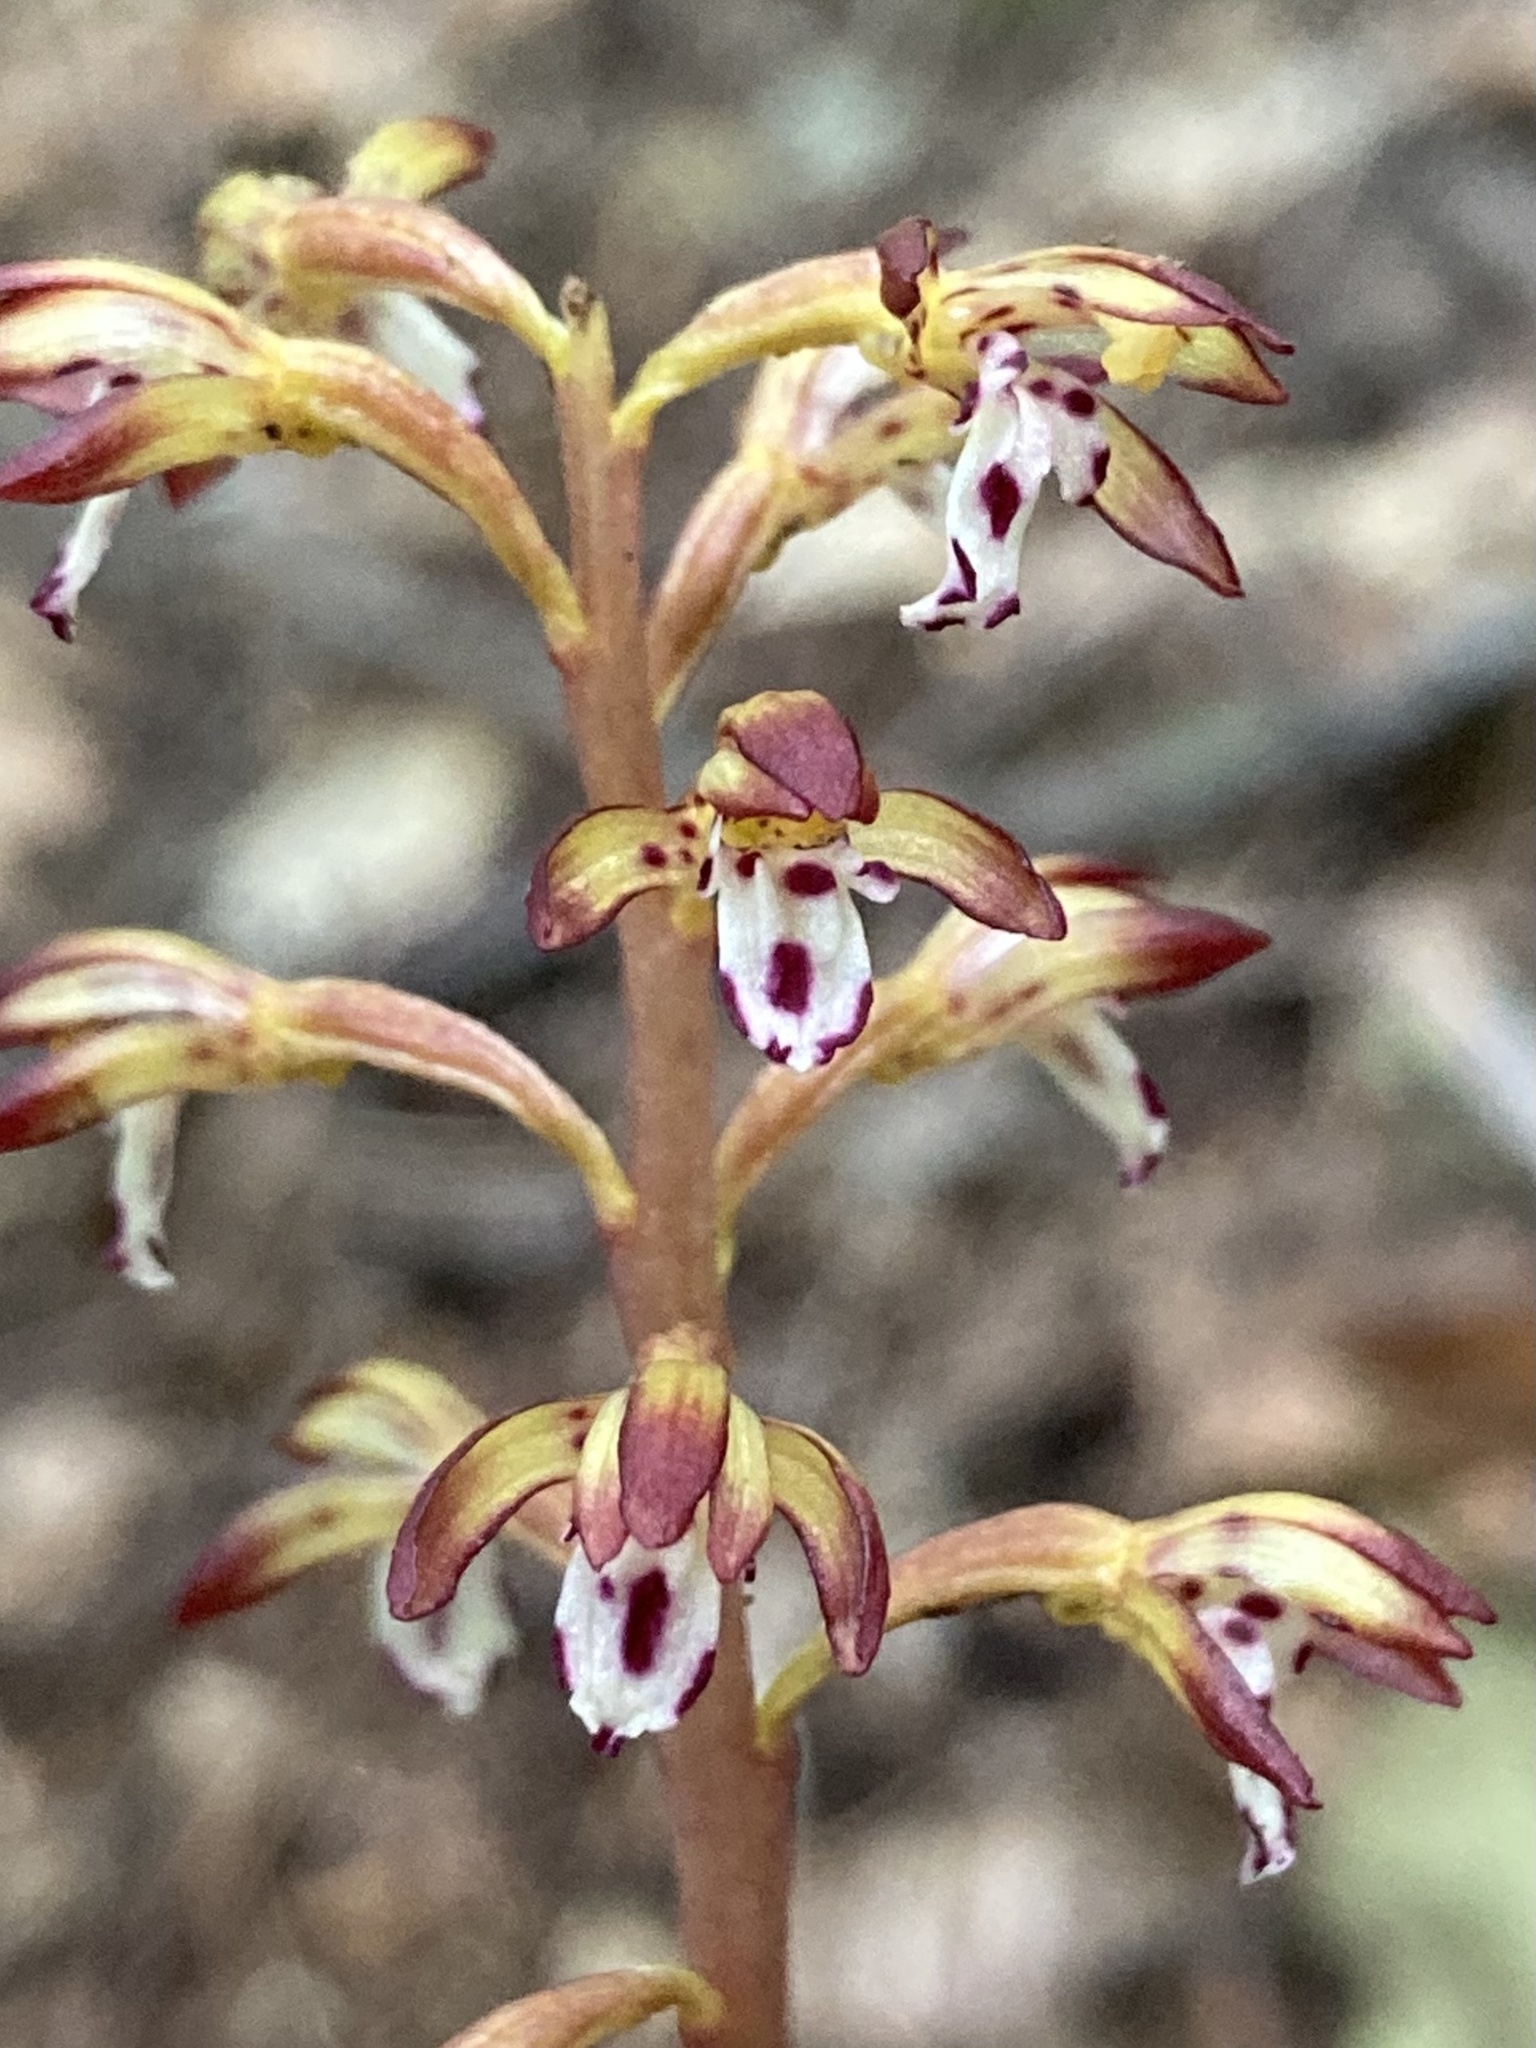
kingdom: Plantae
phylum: Tracheophyta
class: Liliopsida
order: Asparagales
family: Orchidaceae
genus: Corallorhiza
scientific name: Corallorhiza maculata
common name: Spotted coralroot
